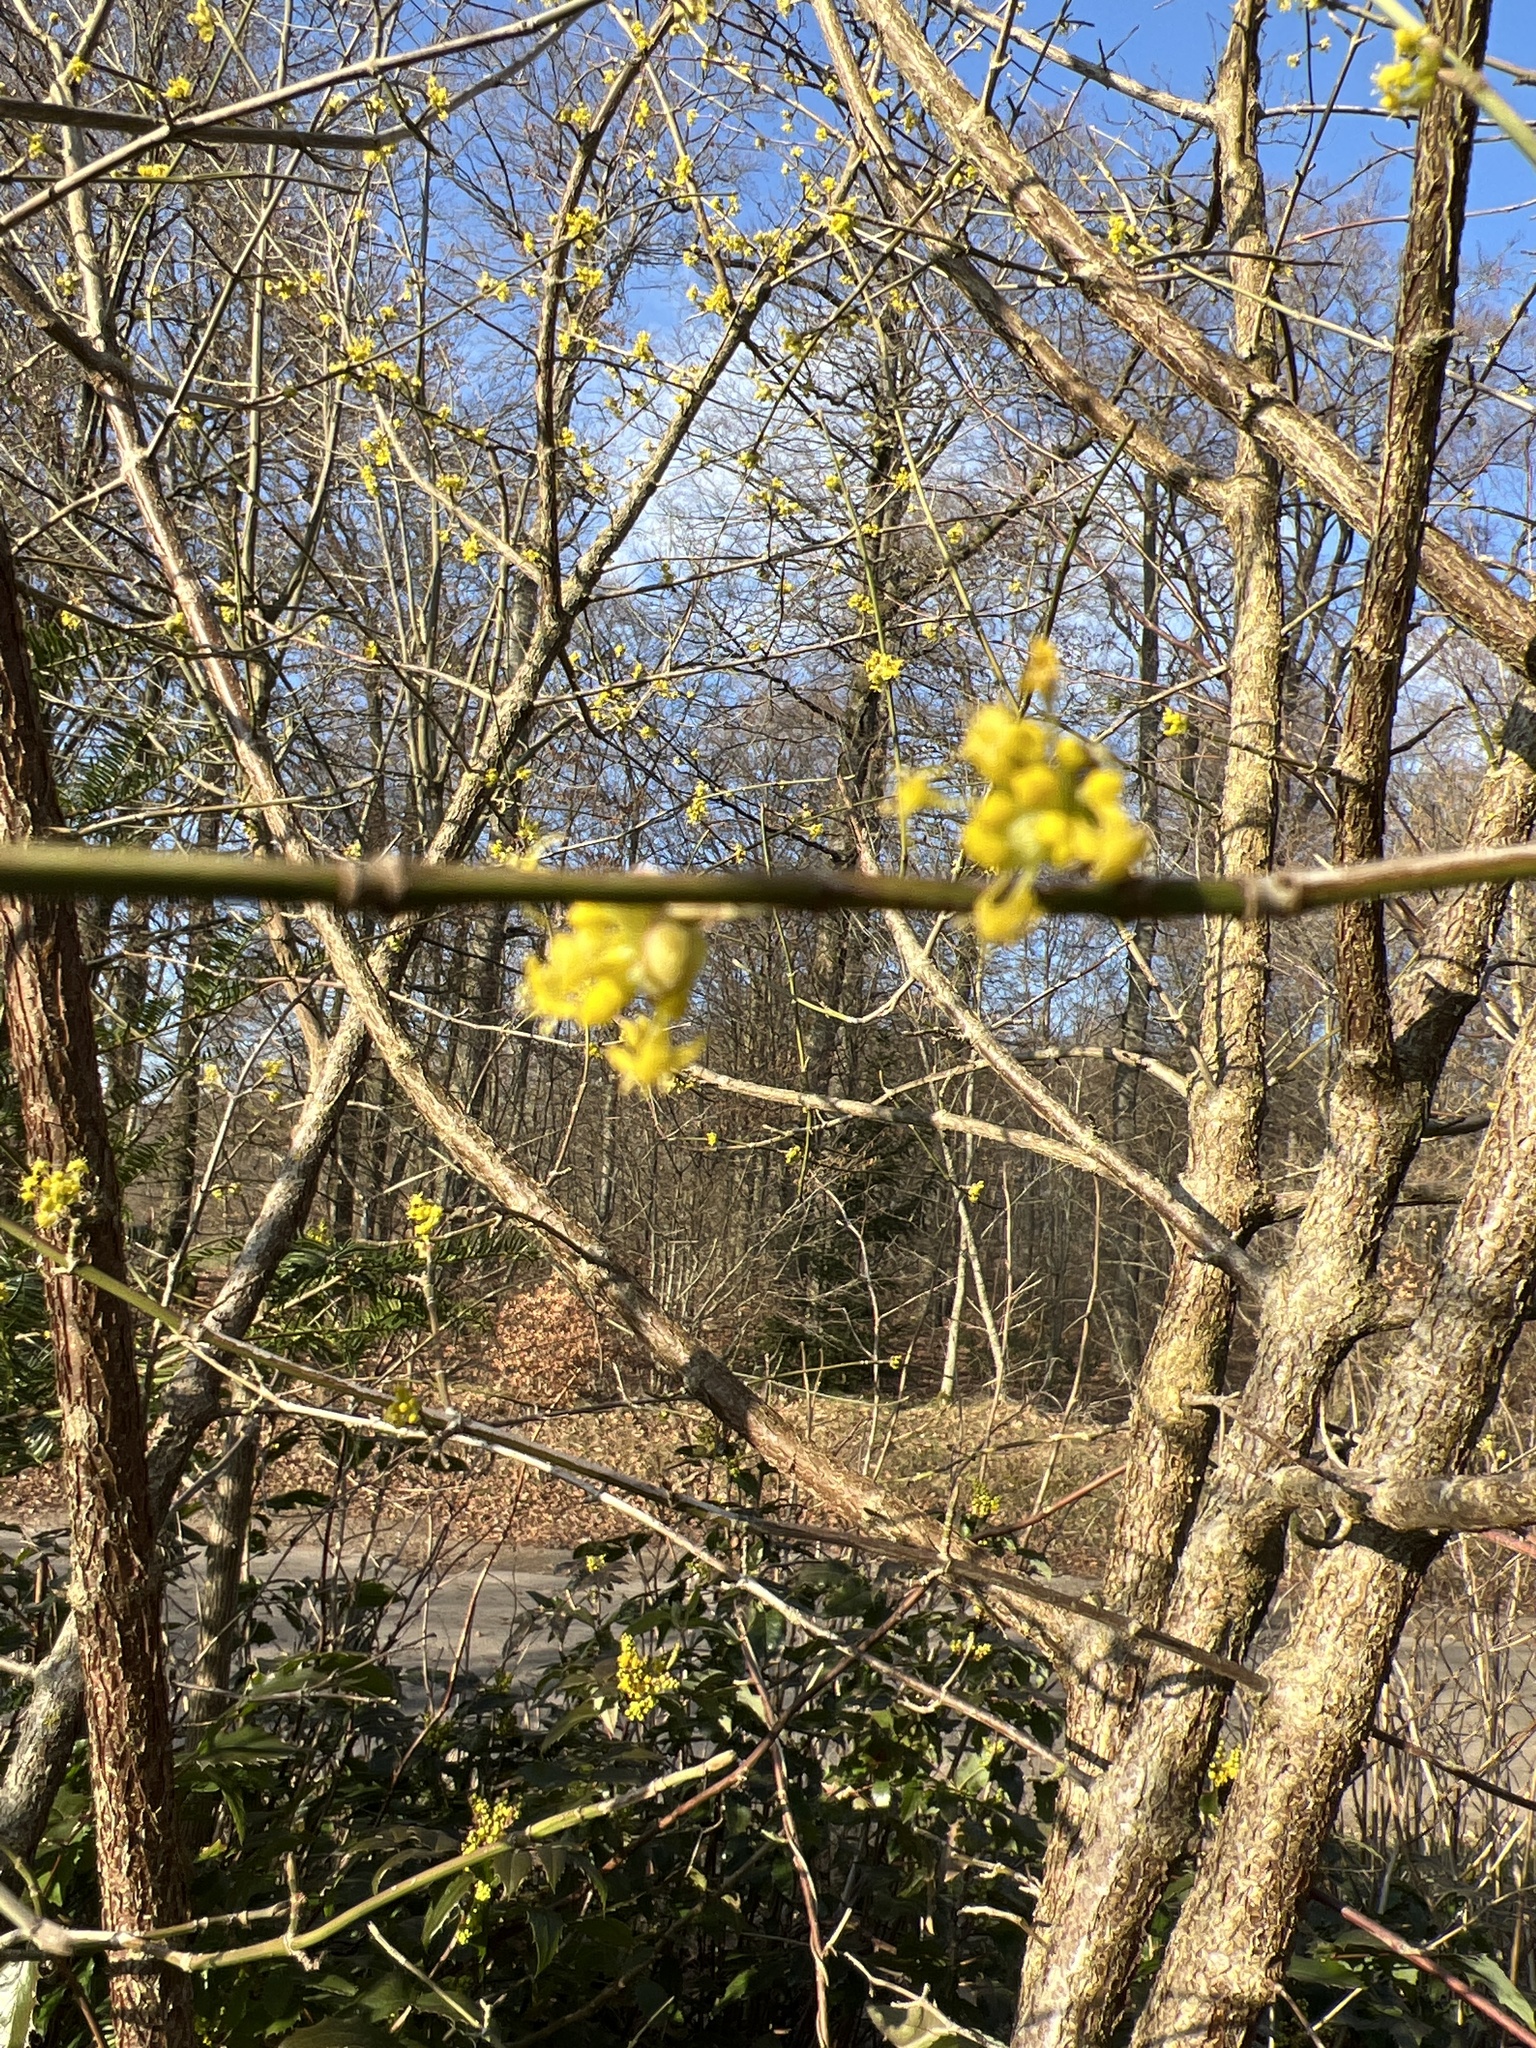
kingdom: Plantae
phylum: Tracheophyta
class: Magnoliopsida
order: Cornales
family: Cornaceae
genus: Cornus
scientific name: Cornus mas
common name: Cornelian-cherry
